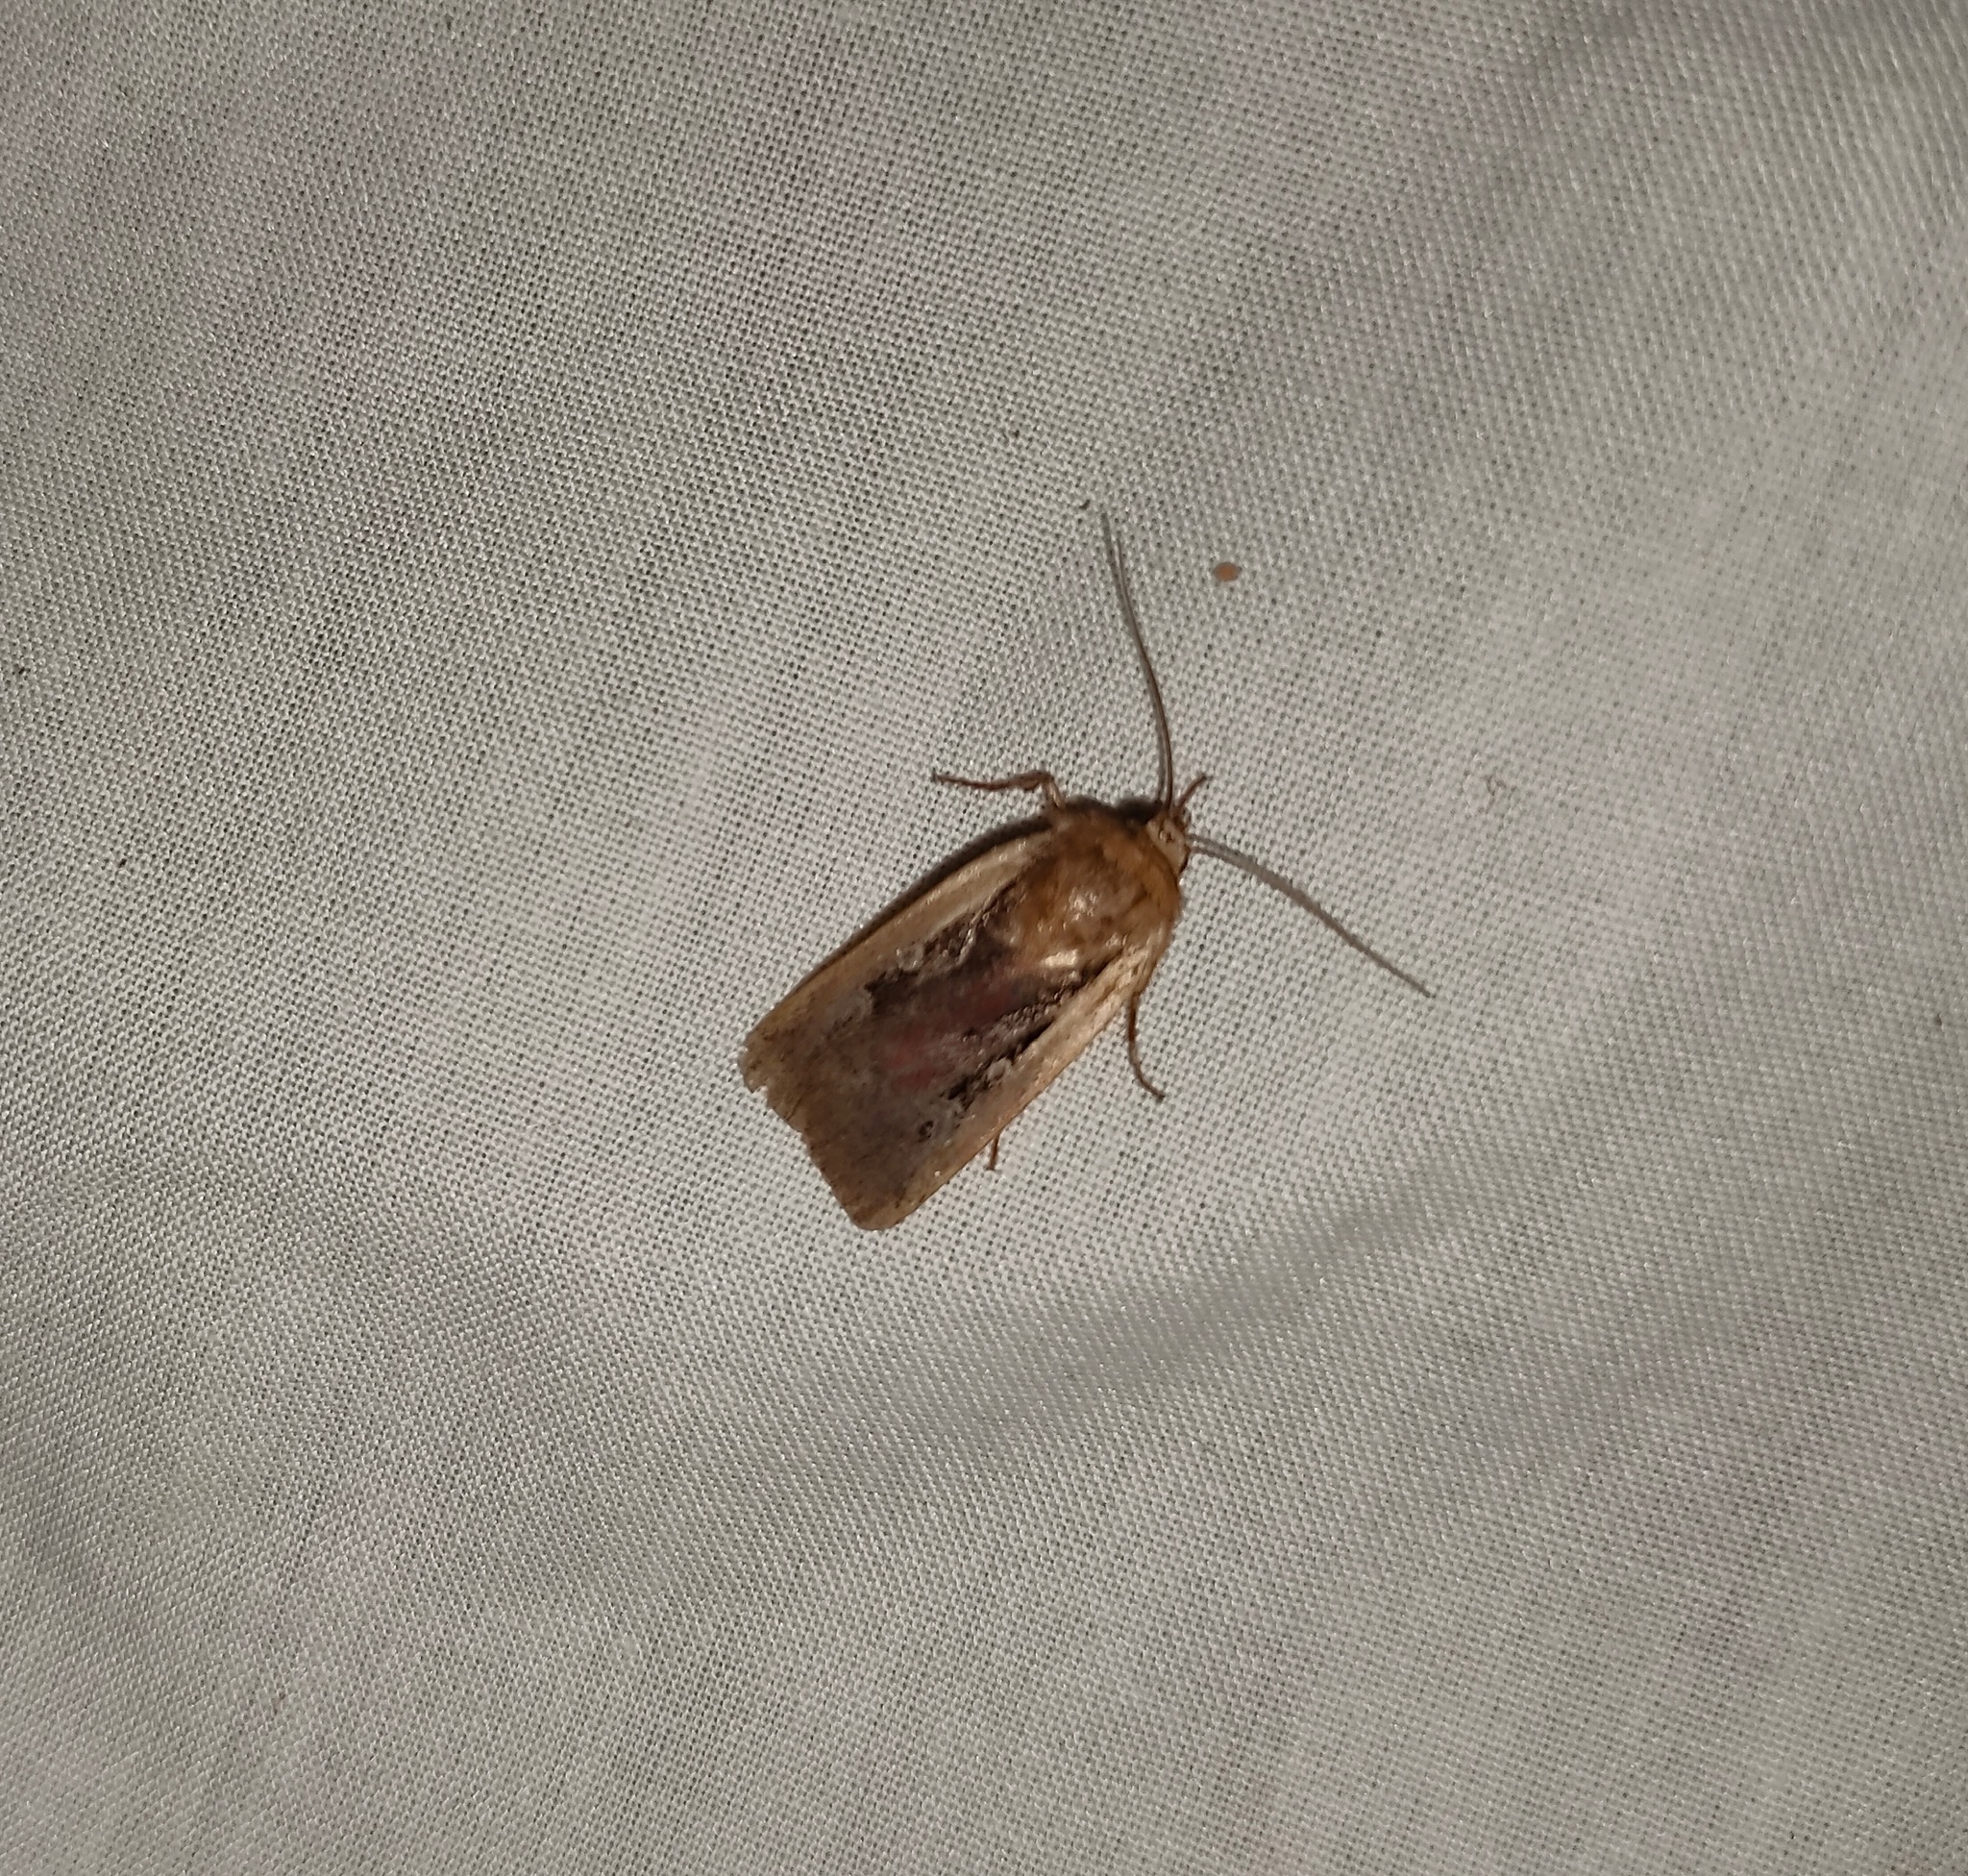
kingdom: Animalia
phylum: Arthropoda
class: Insecta
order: Lepidoptera
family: Noctuidae
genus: Ochropleura
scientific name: Ochropleura plecta
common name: Flame shoulder
